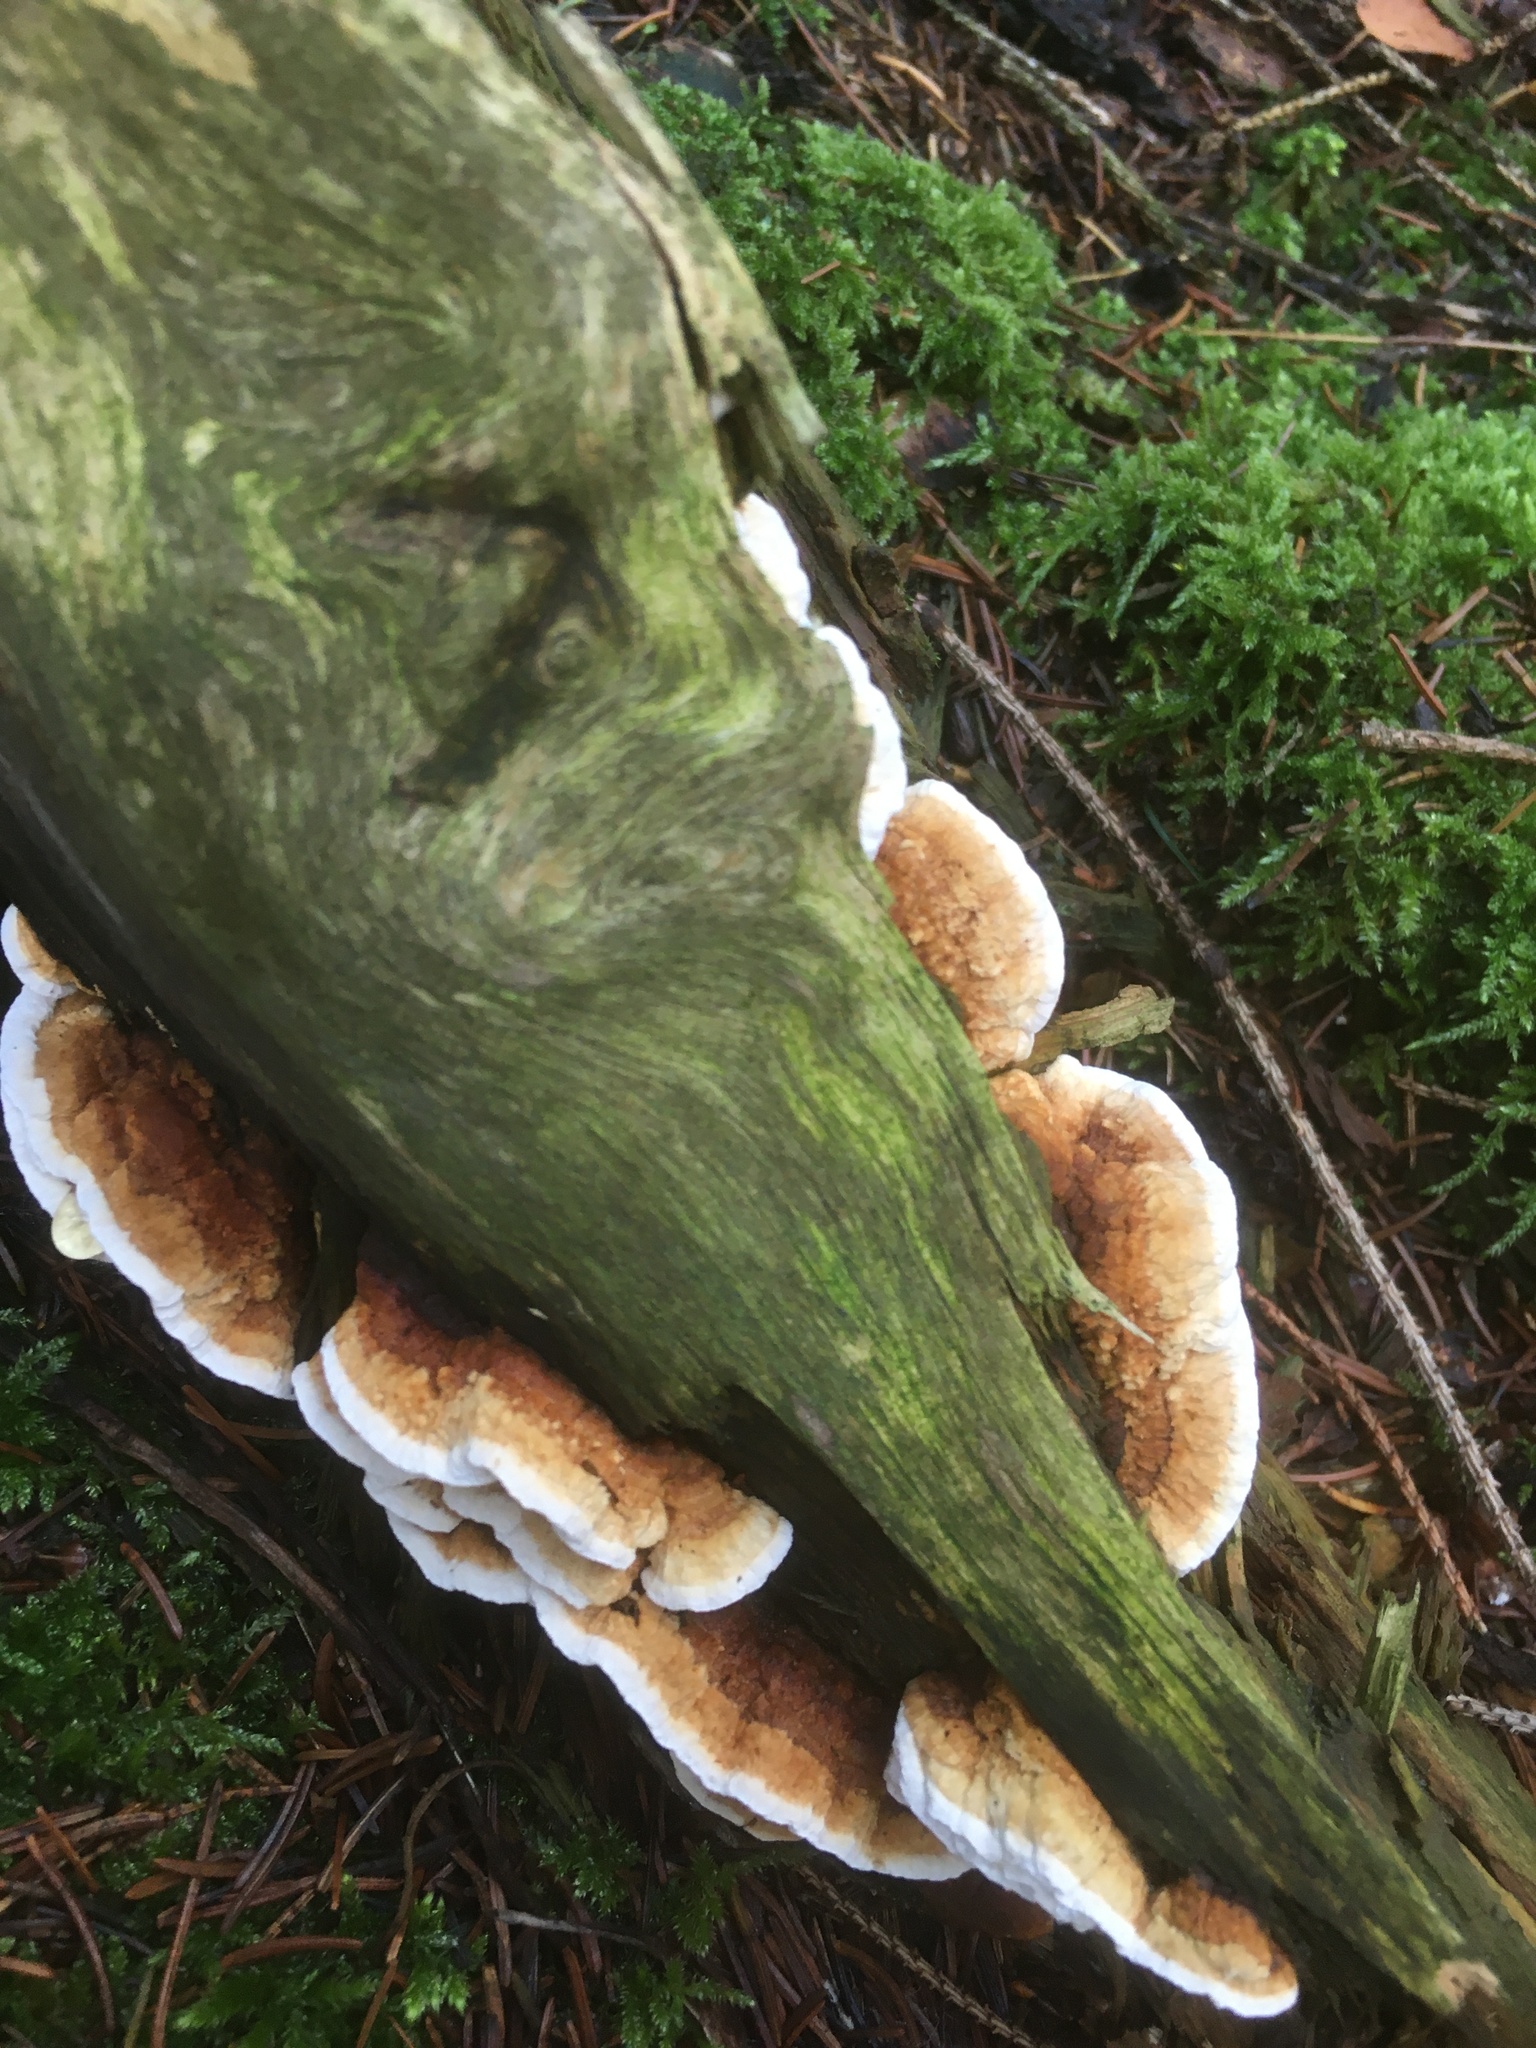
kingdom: Fungi
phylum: Basidiomycota
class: Agaricomycetes
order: Polyporales
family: Polyporaceae
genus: Daedaleopsis
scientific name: Daedaleopsis confragosa
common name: Blushing bracket
